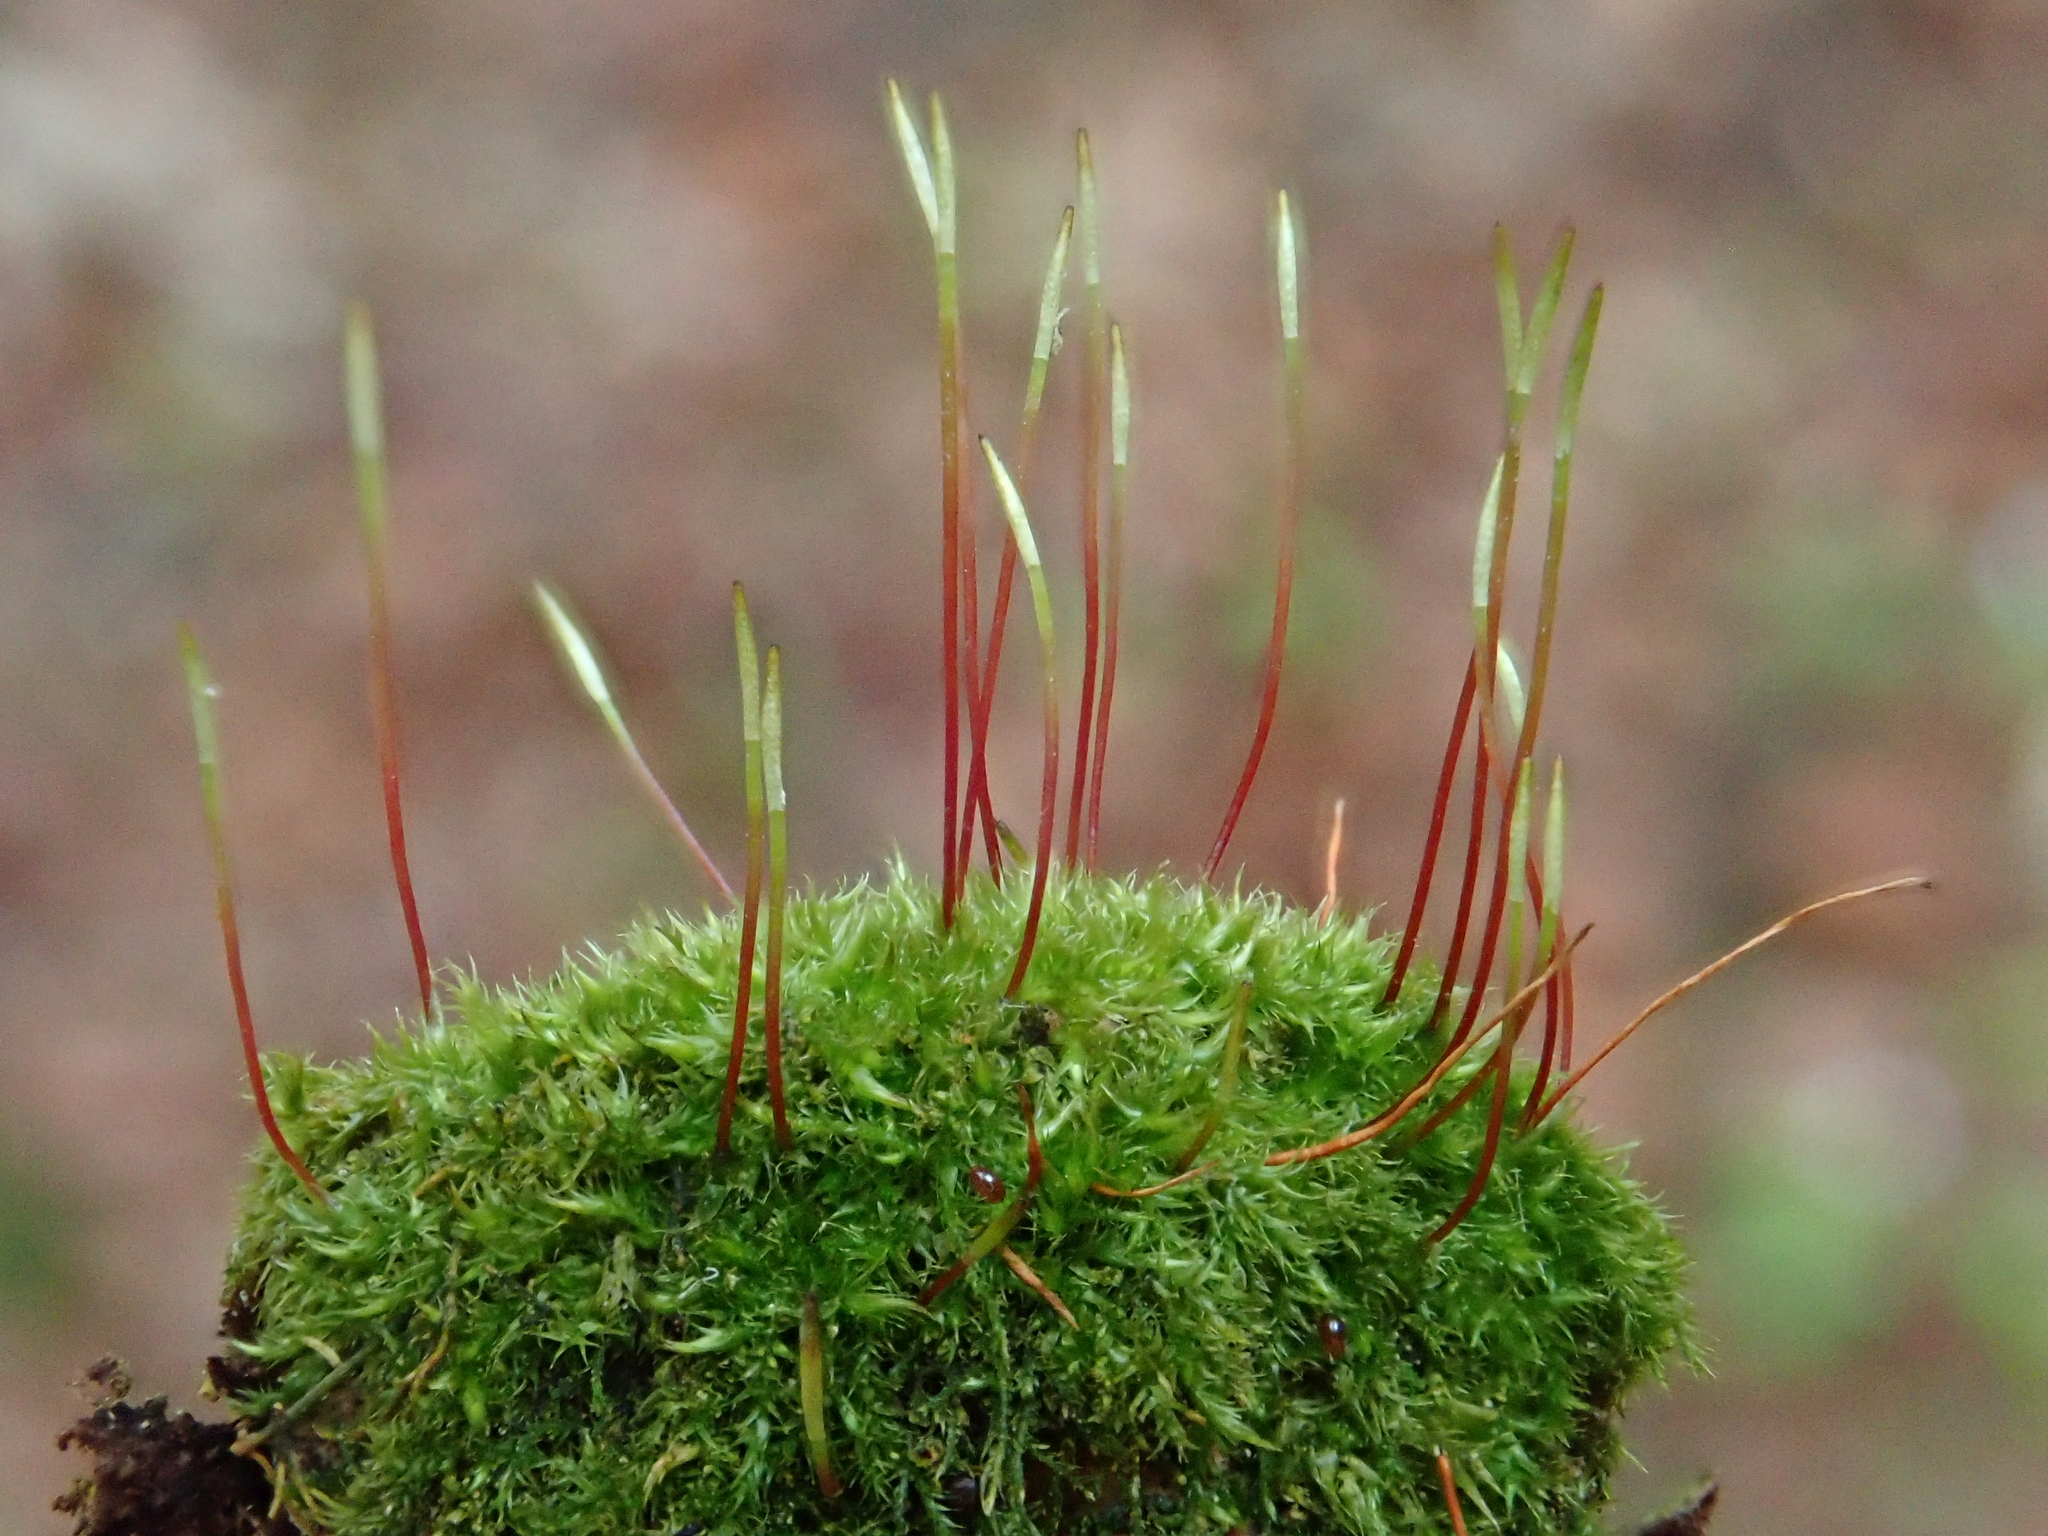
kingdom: Plantae
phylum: Bryophyta
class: Bryopsida
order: Hypnales
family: Pylaisiaceae
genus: Homomallium
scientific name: Homomallium incurvatum
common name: Incurved feather-moss
